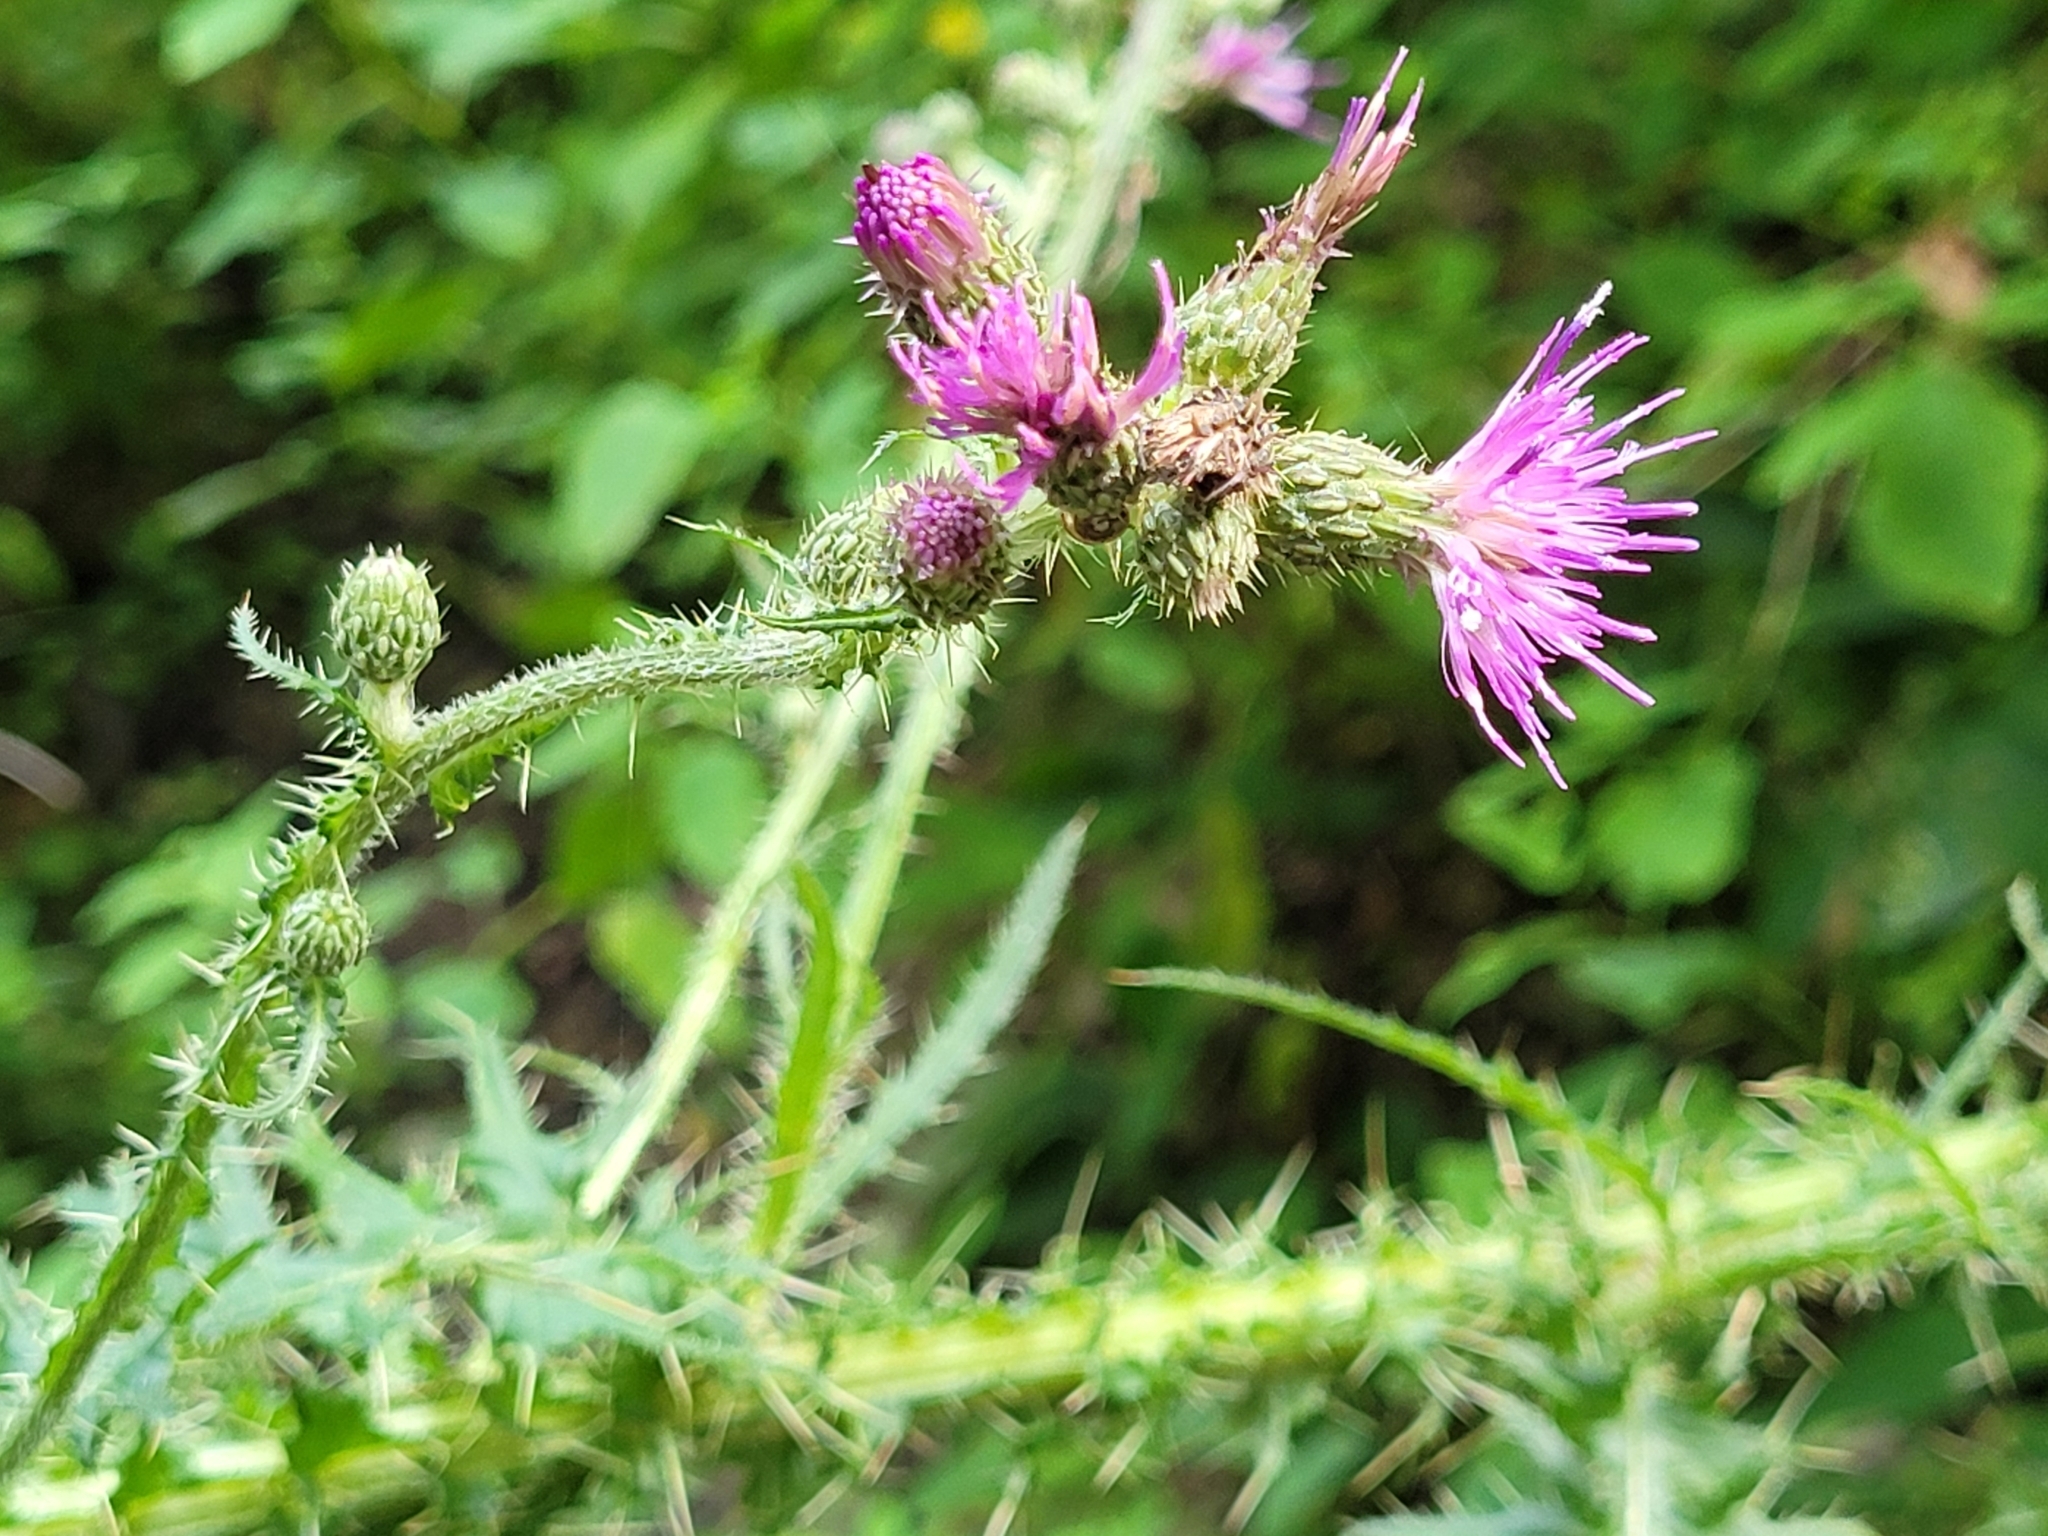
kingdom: Plantae
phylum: Tracheophyta
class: Magnoliopsida
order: Asterales
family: Asteraceae
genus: Cirsium
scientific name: Cirsium palustre
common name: Marsh thistle
